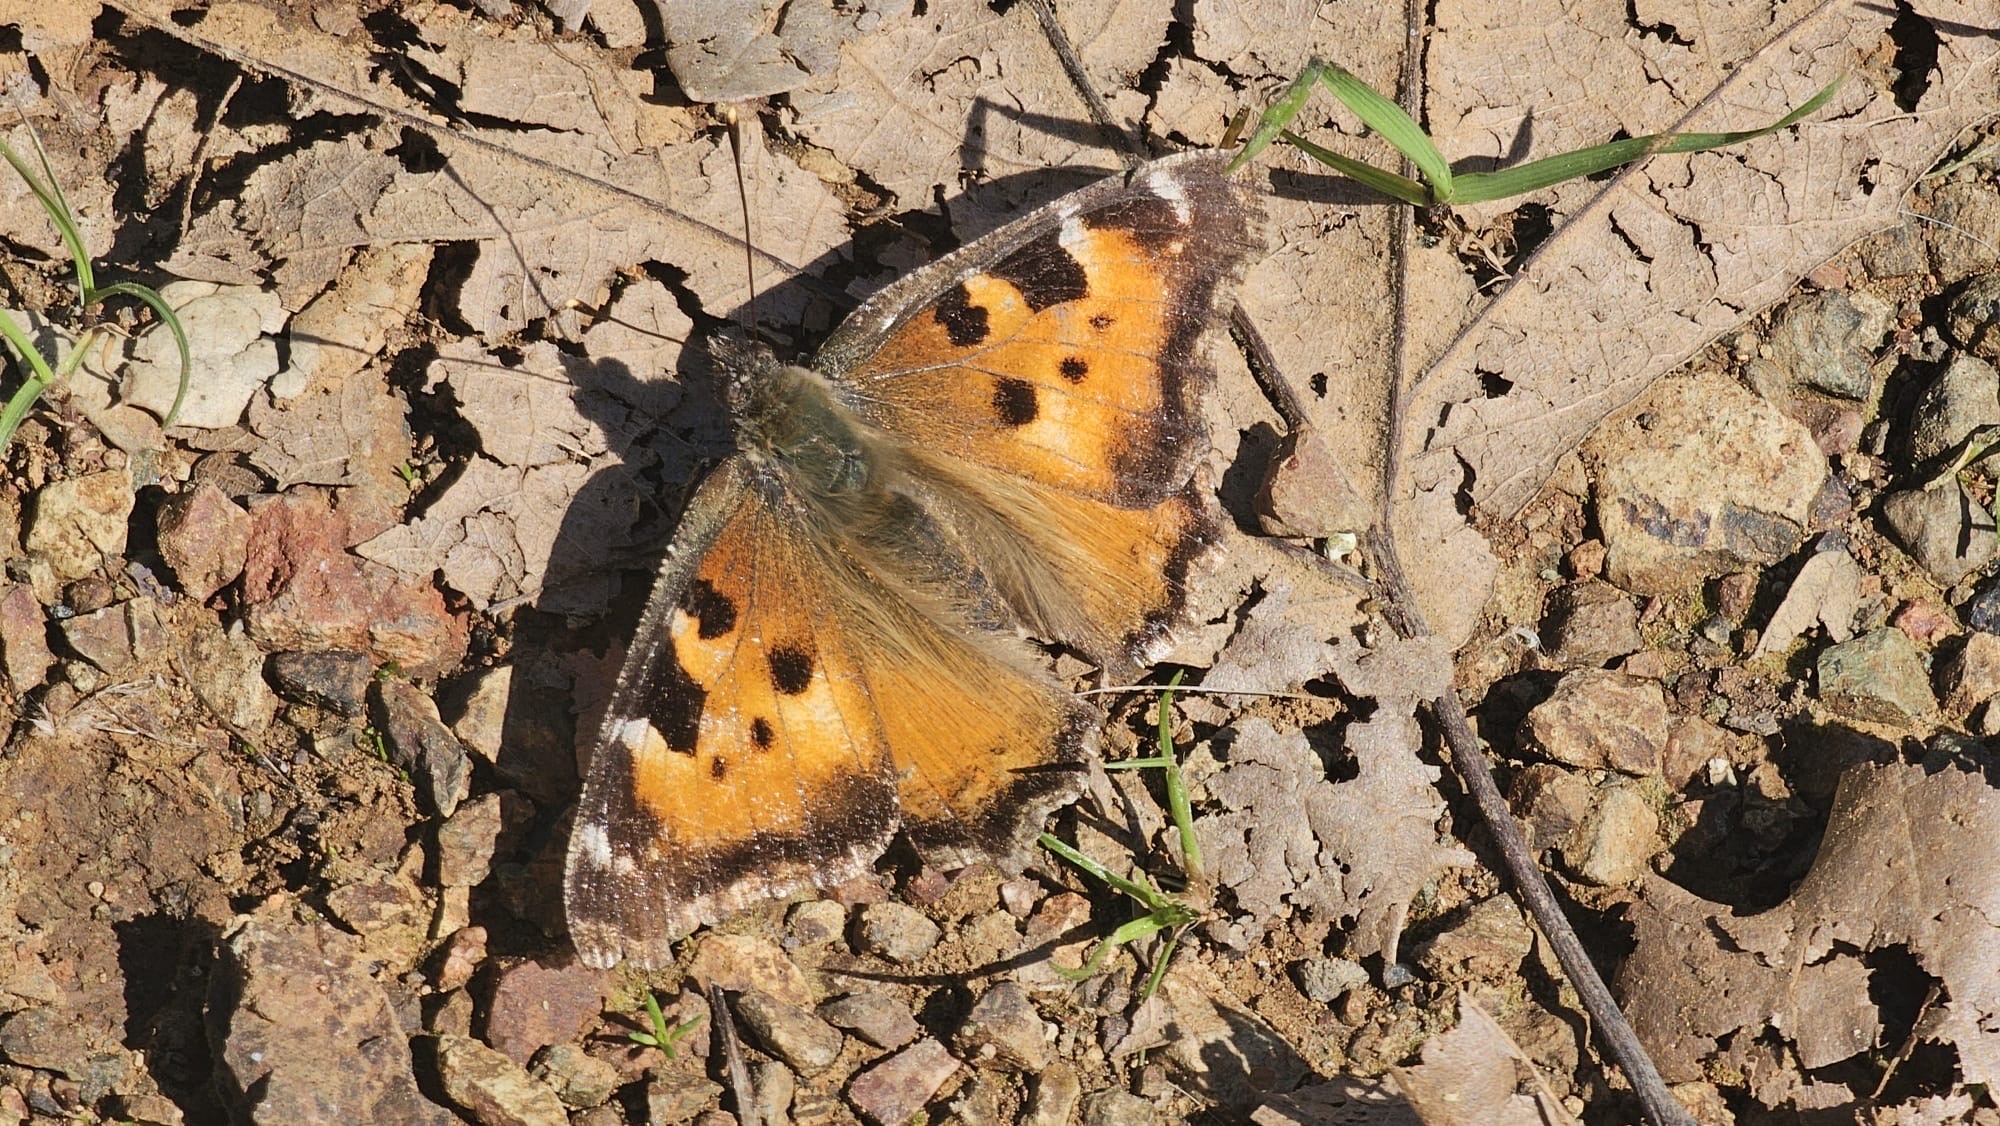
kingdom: Animalia
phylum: Arthropoda
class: Insecta
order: Lepidoptera
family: Nymphalidae
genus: Nymphalis
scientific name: Nymphalis californica
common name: California tortoiseshell
